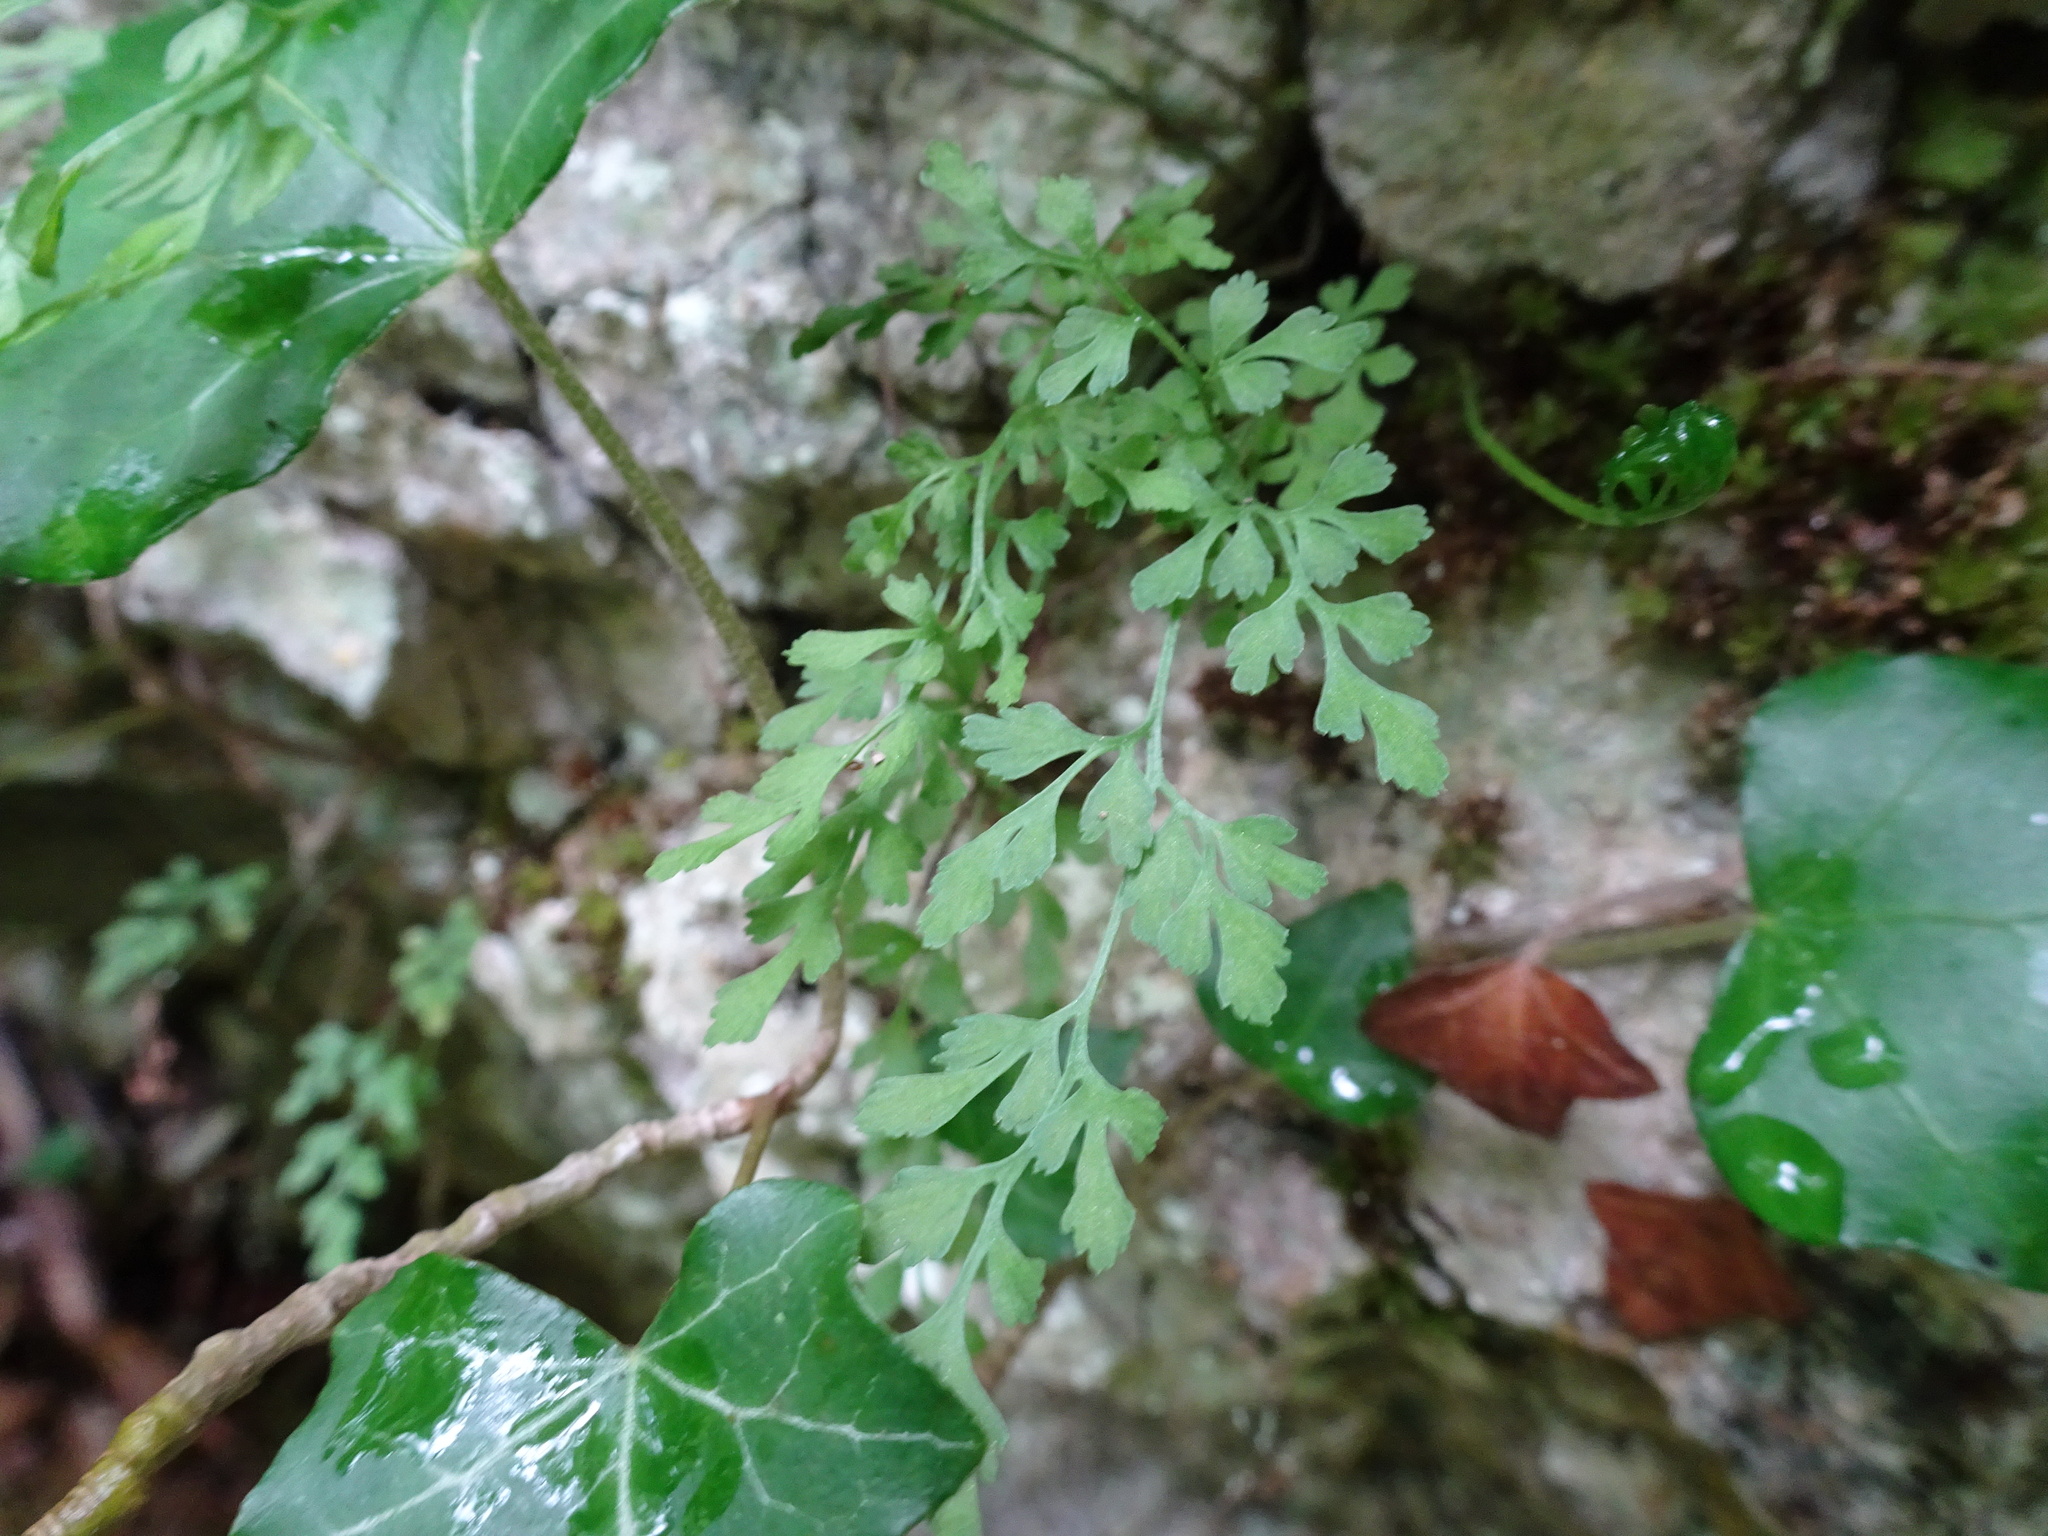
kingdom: Plantae
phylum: Tracheophyta
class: Polypodiopsida
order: Polypodiales
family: Aspleniaceae
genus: Asplenium
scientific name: Asplenium ruta-muraria
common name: Wall-rue
